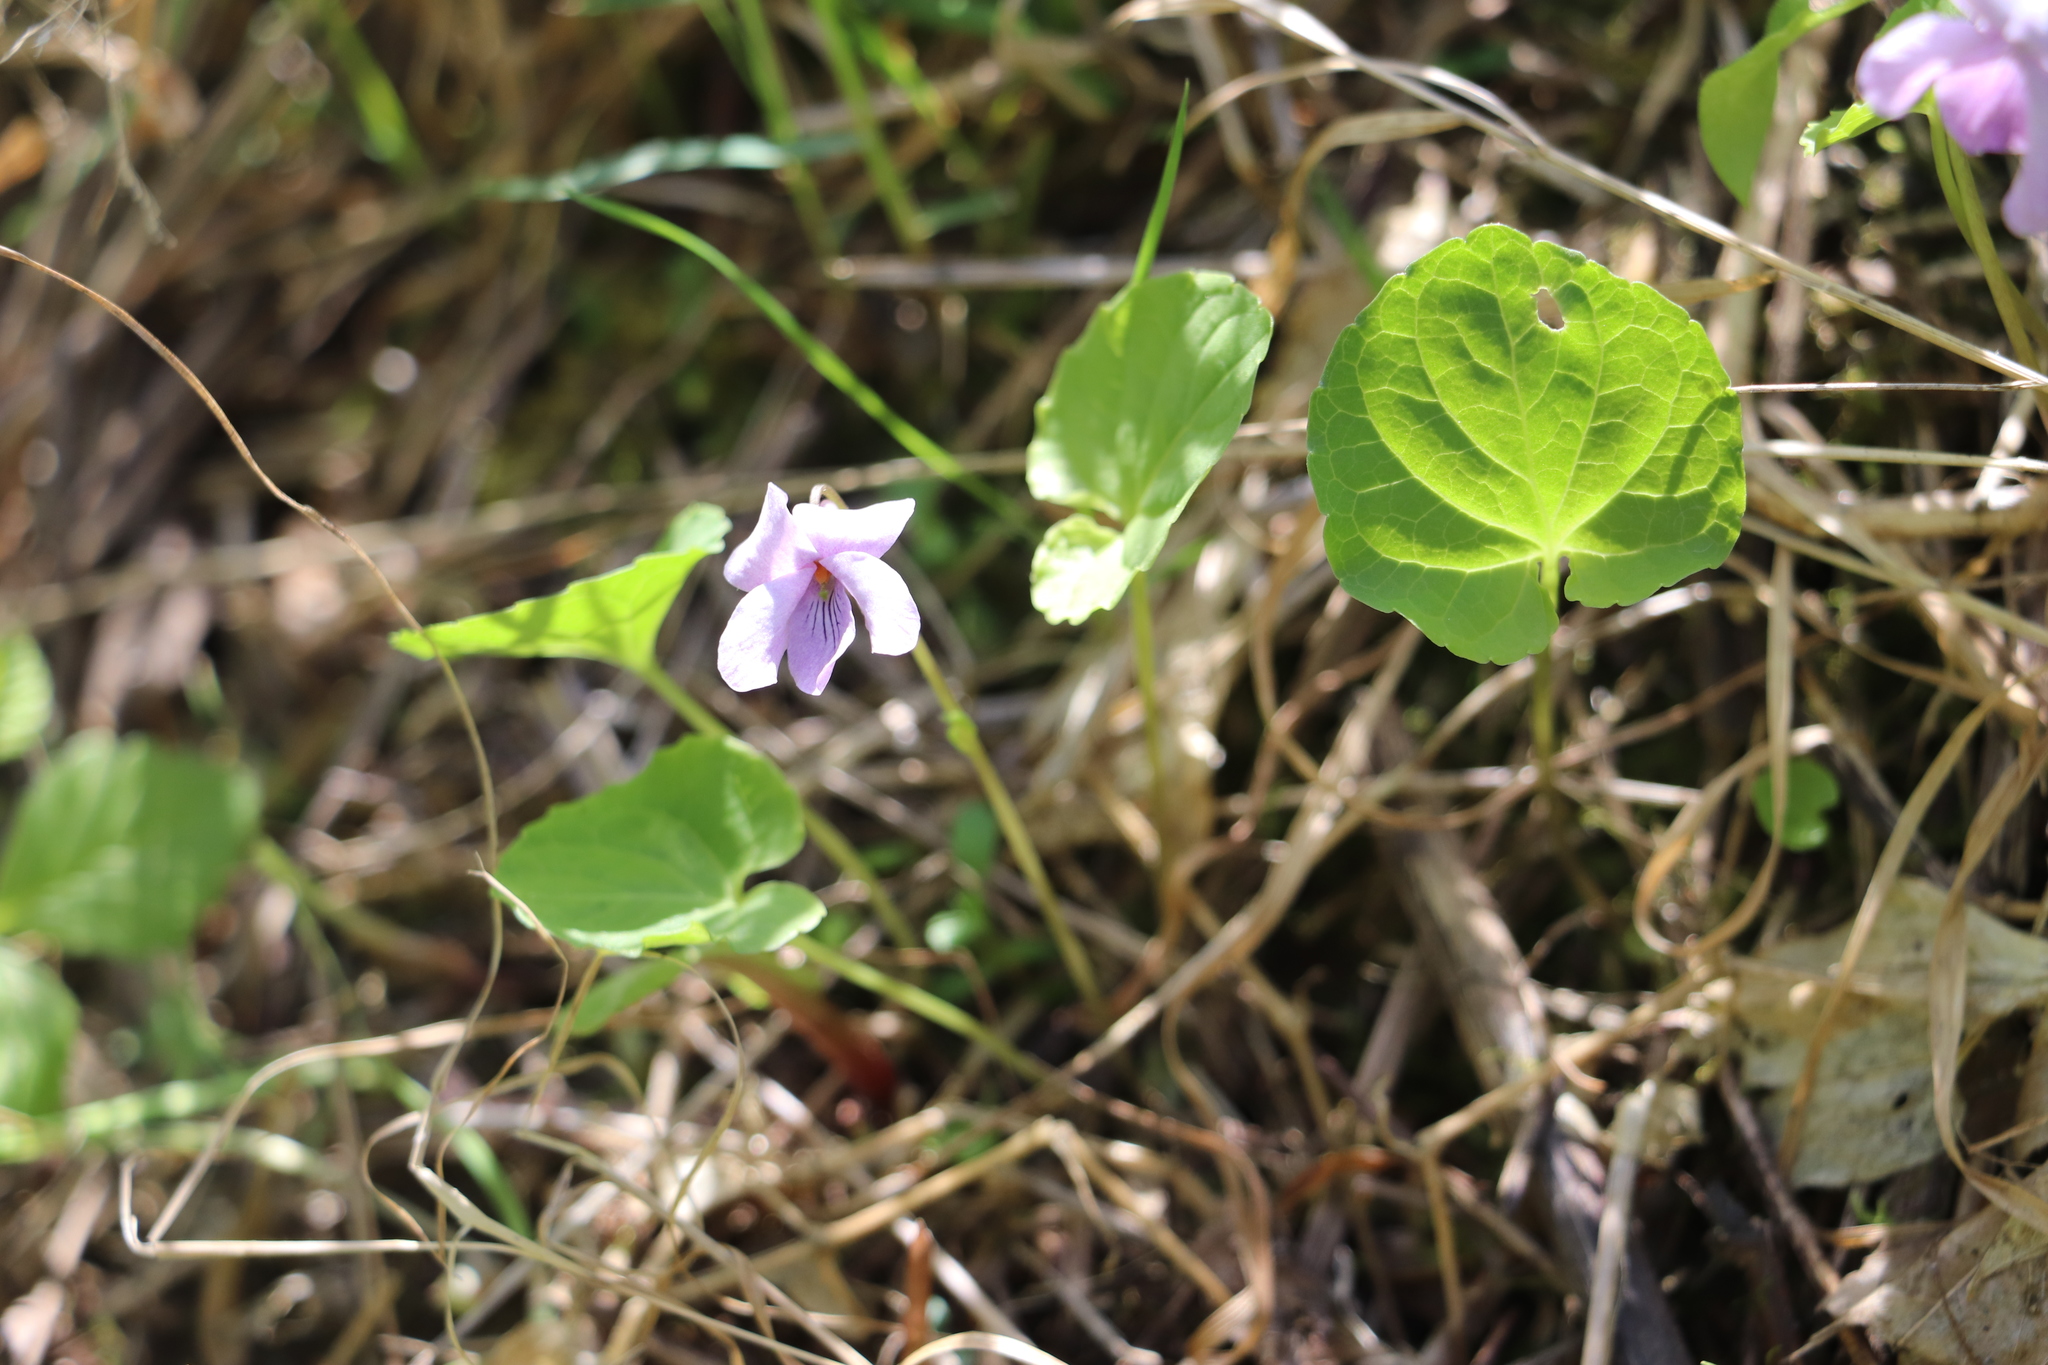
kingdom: Plantae
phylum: Tracheophyta
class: Magnoliopsida
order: Malpighiales
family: Violaceae
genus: Viola
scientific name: Viola epipsila
